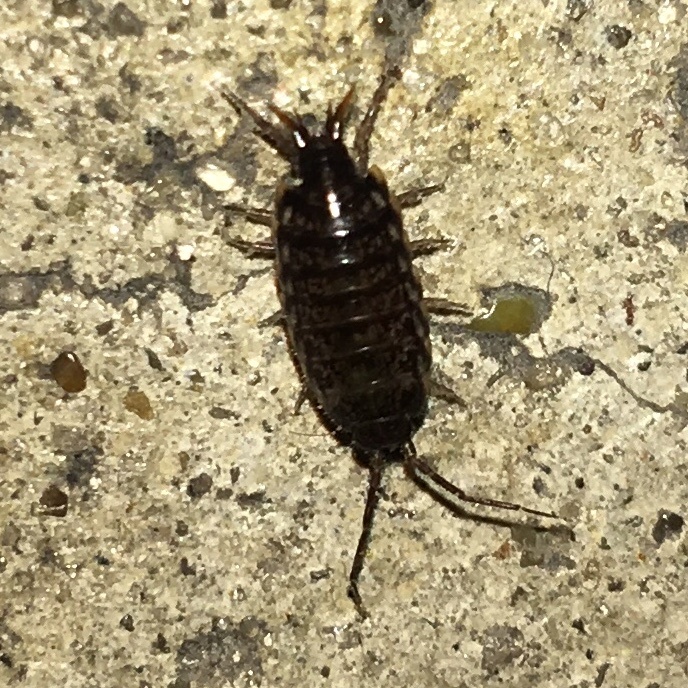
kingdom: Animalia
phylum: Arthropoda
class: Malacostraca
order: Isopoda
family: Philosciidae
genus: Atlantoscia
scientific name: Atlantoscia floridana
